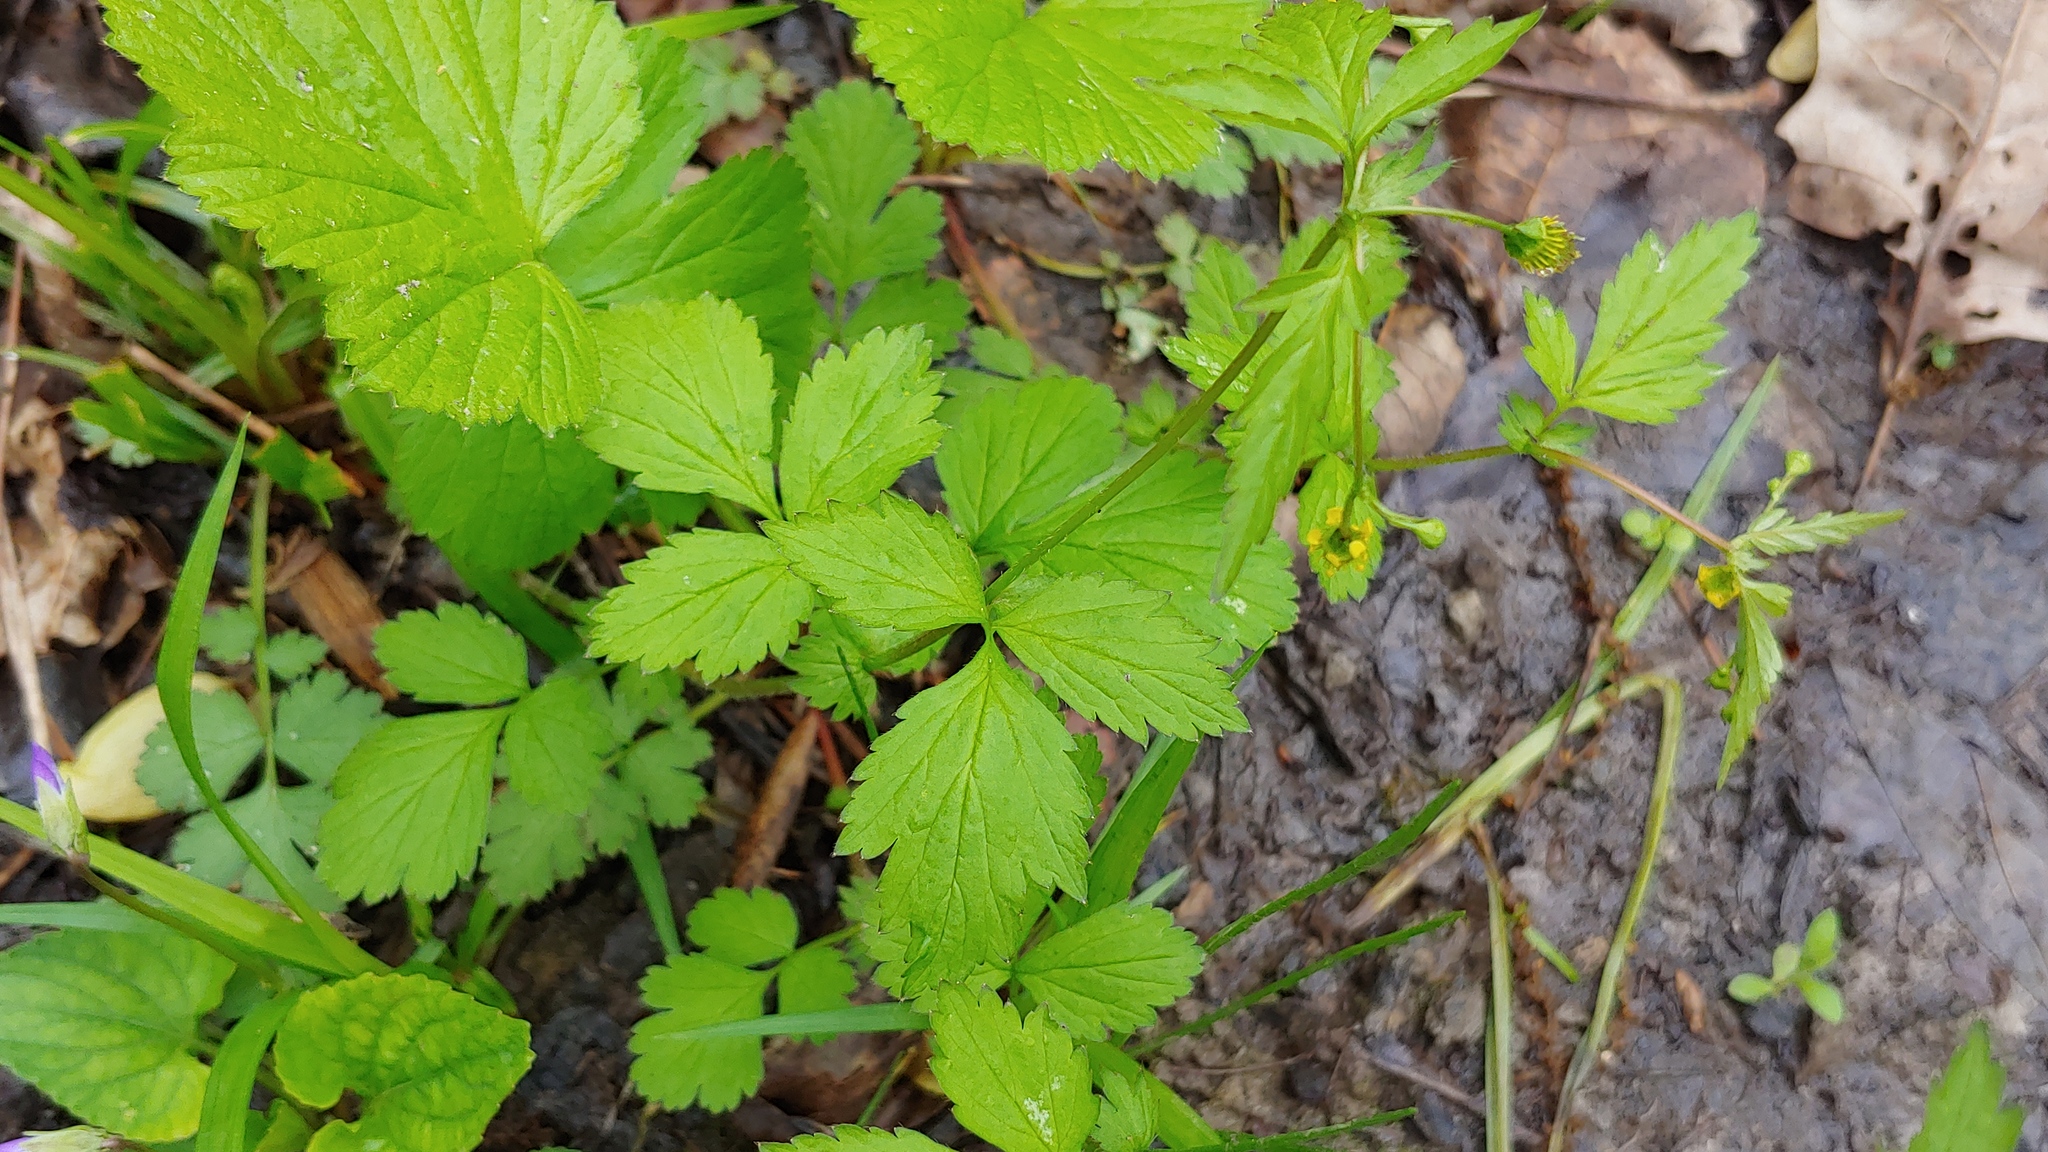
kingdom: Plantae
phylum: Tracheophyta
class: Magnoliopsida
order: Rosales
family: Rosaceae
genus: Geum
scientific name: Geum vernum
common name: Spring avens
